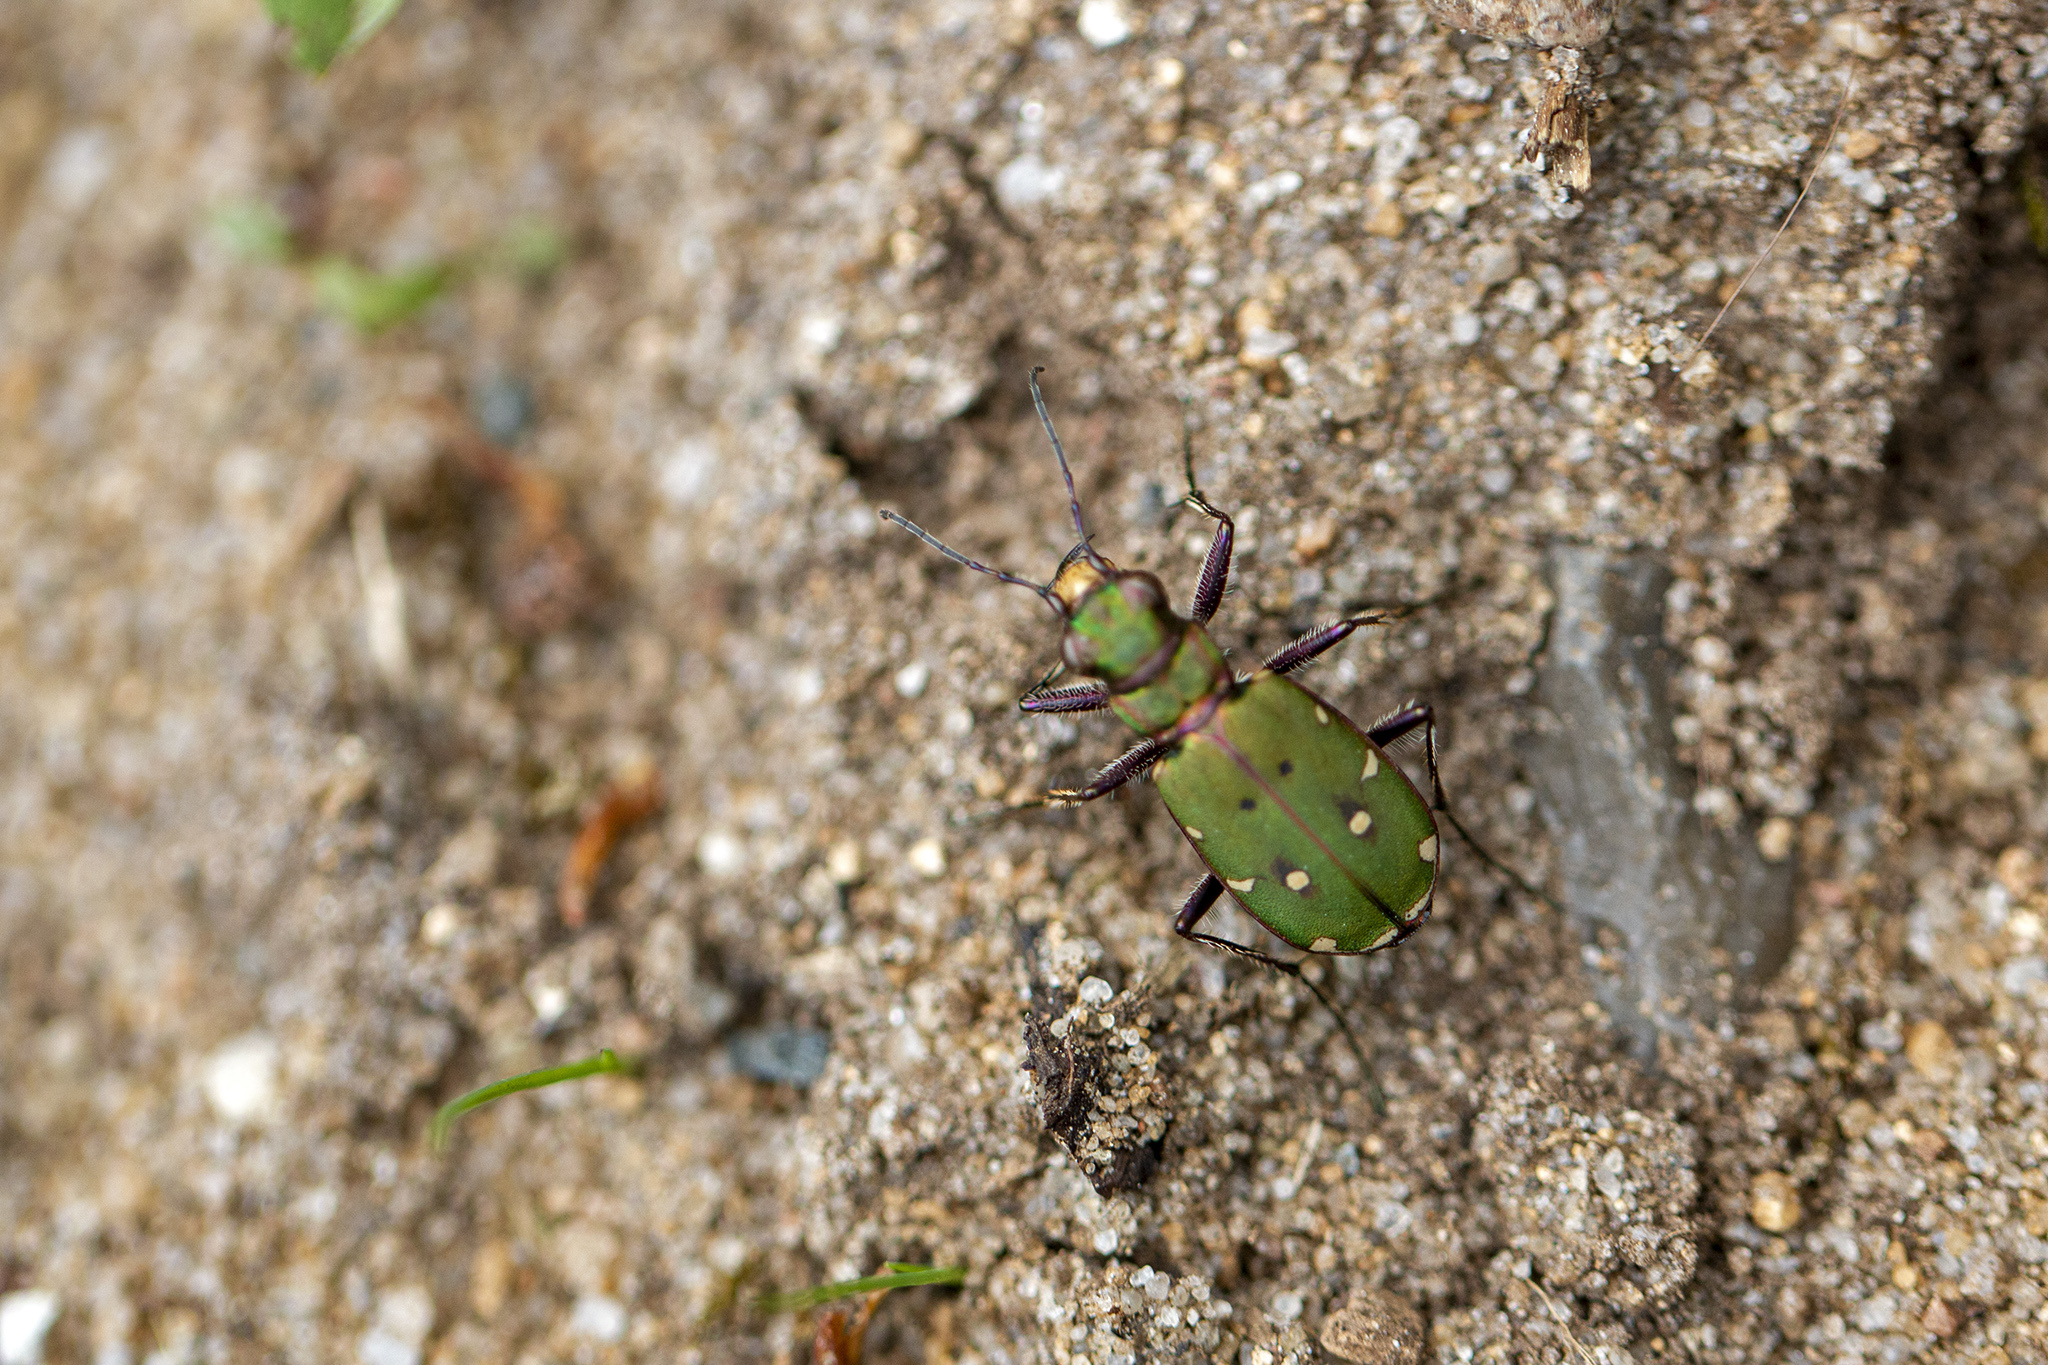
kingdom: Animalia
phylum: Arthropoda
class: Insecta
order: Coleoptera
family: Carabidae
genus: Cicindela
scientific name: Cicindela campestris
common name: Common tiger beetle
